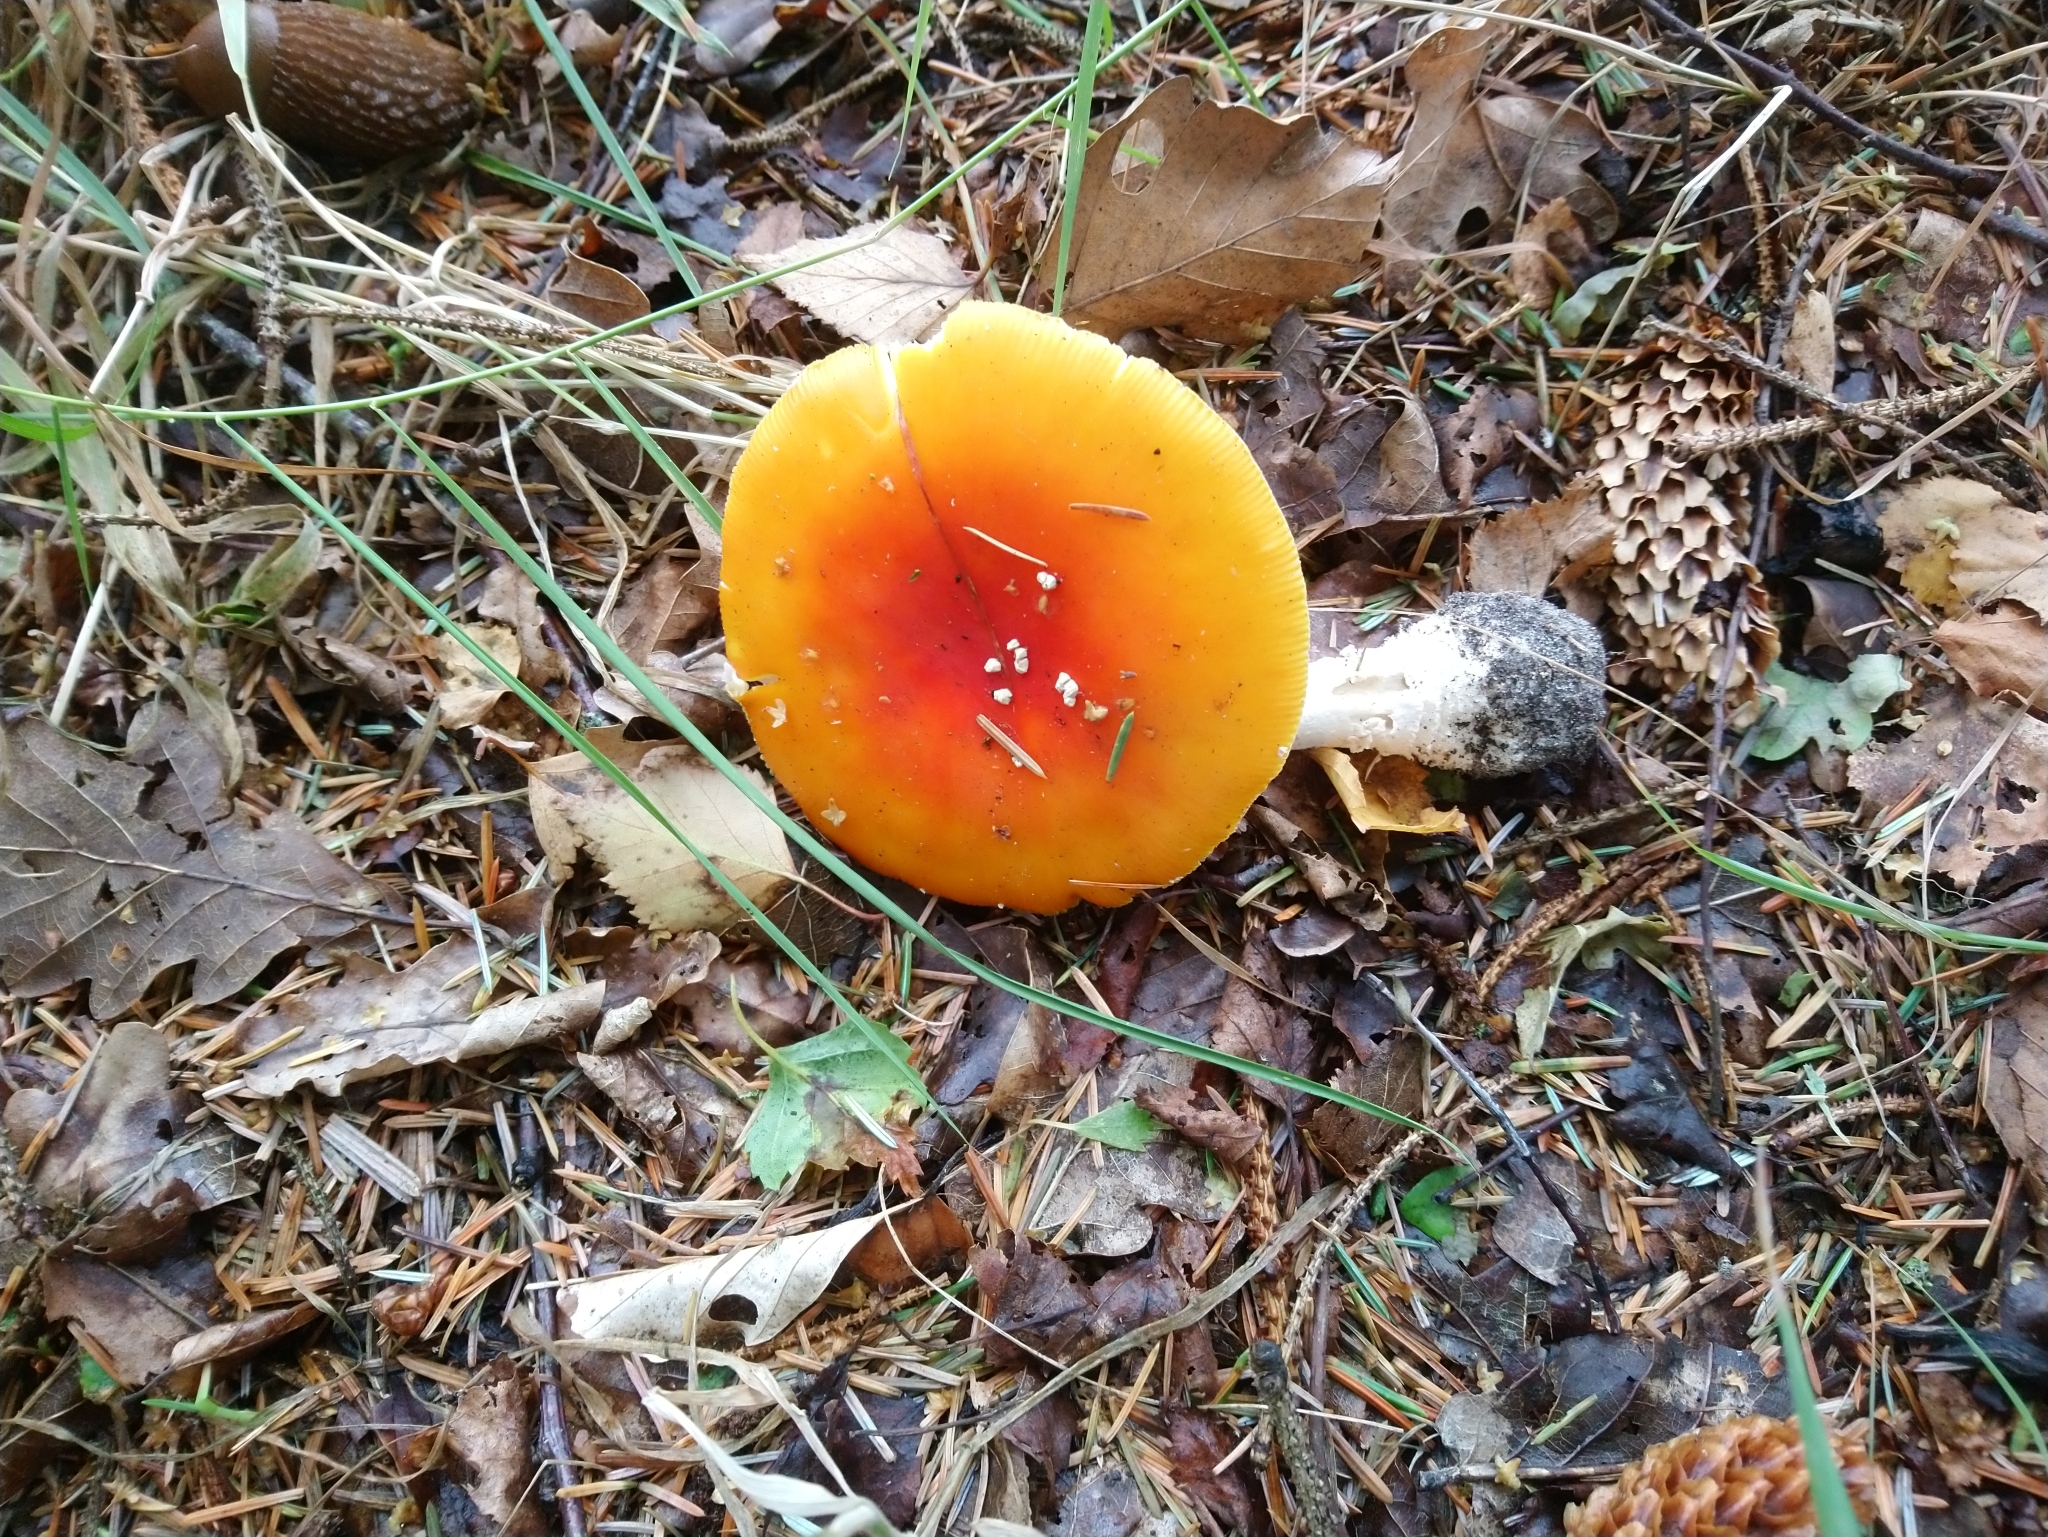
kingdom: Fungi
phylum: Basidiomycota
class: Agaricomycetes
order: Agaricales
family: Amanitaceae
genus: Amanita
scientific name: Amanita muscaria
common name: Fly agaric
